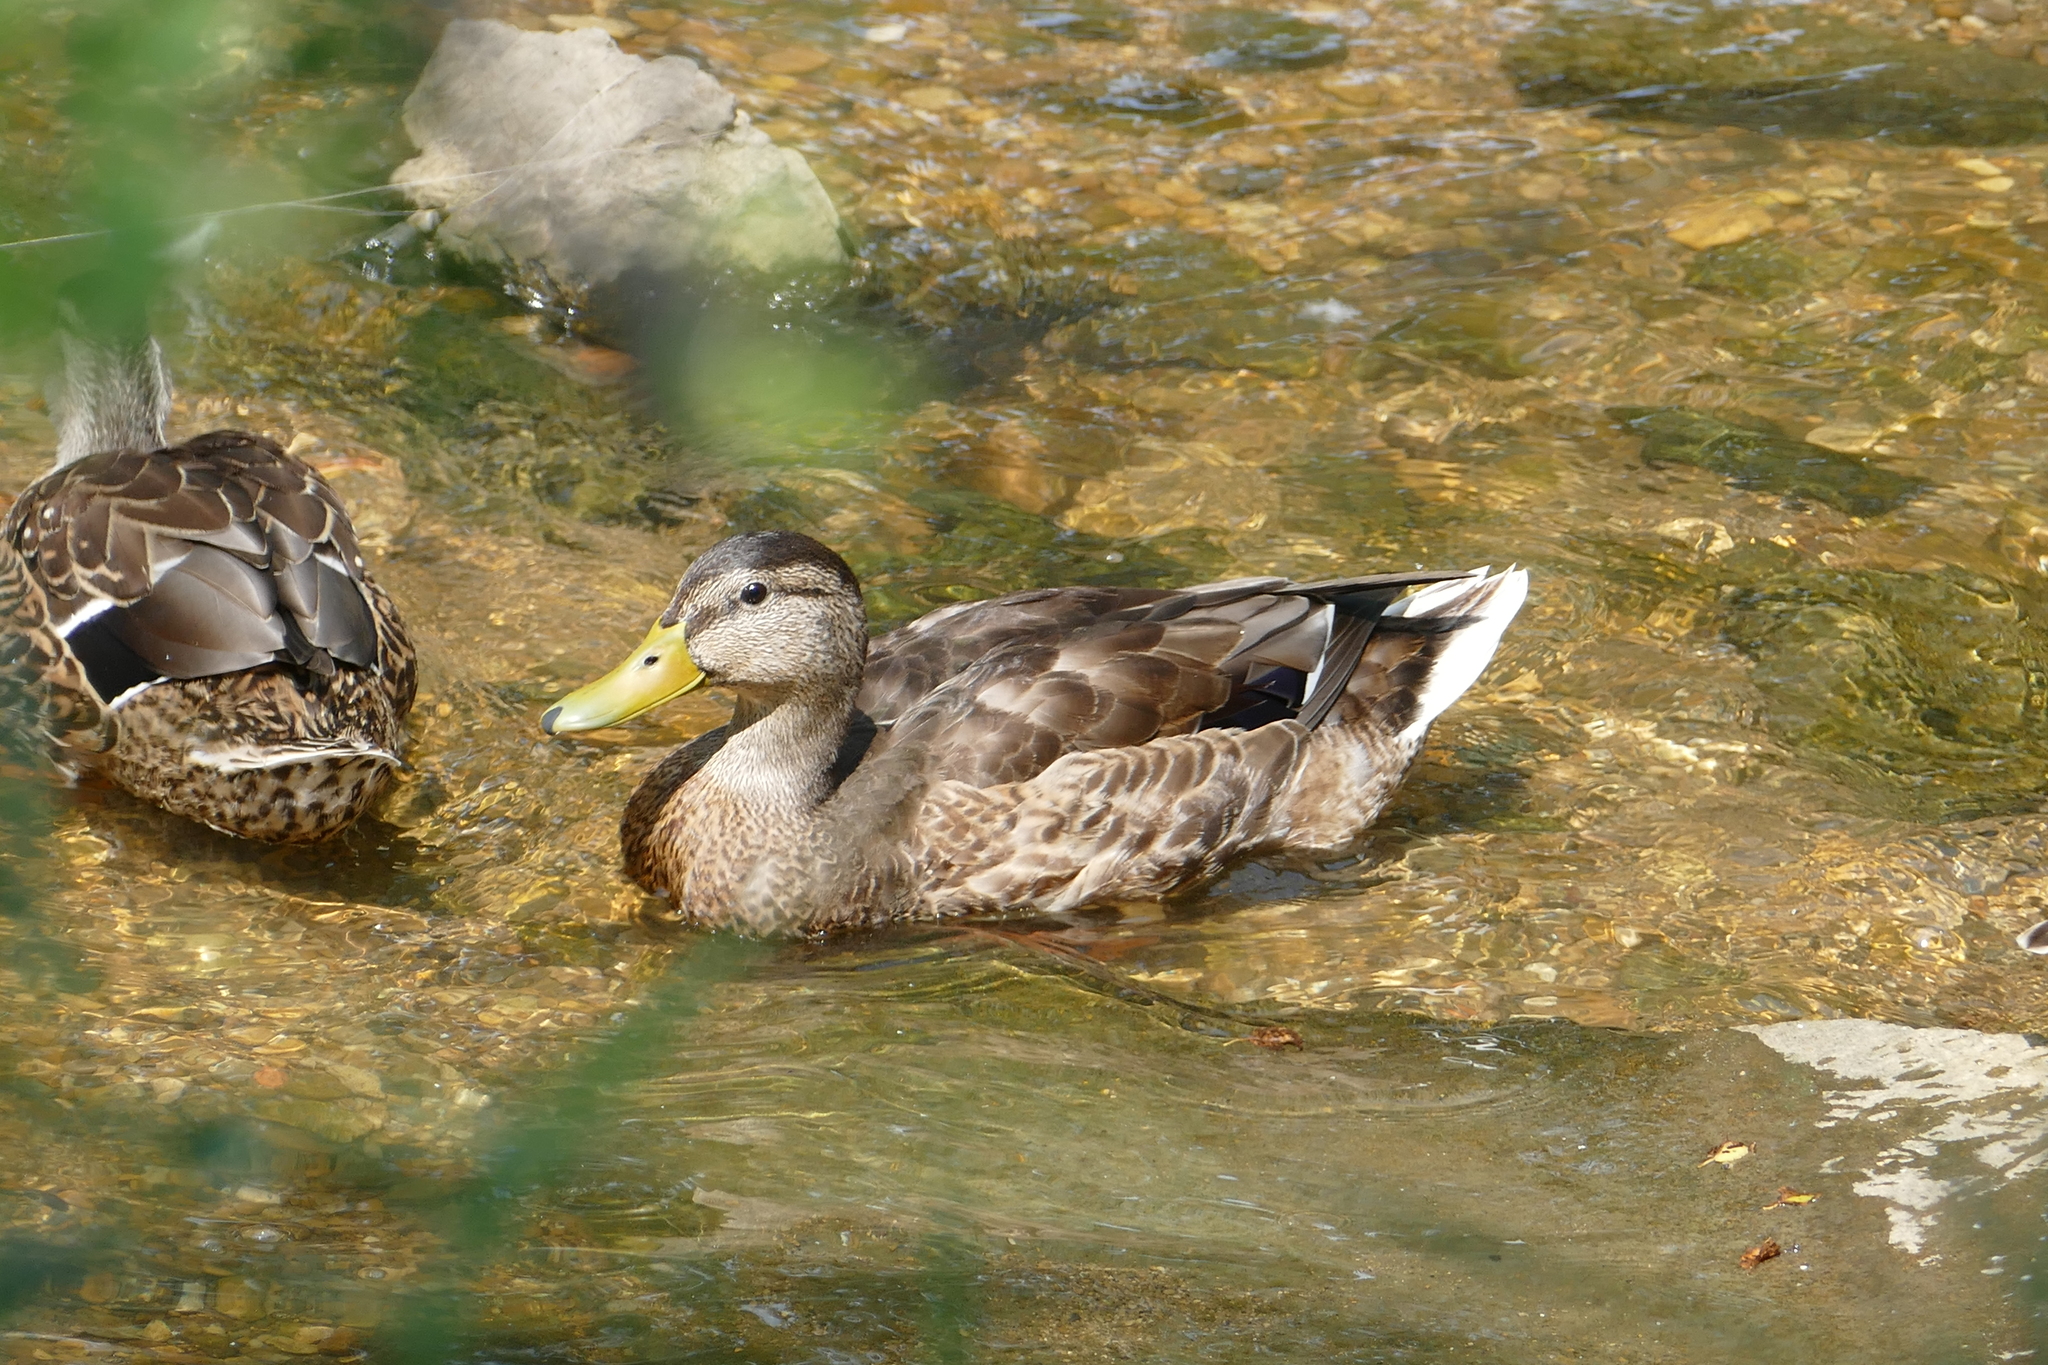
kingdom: Animalia
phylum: Chordata
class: Aves
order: Anseriformes
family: Anatidae
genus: Anas
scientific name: Anas platyrhynchos
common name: Mallard
